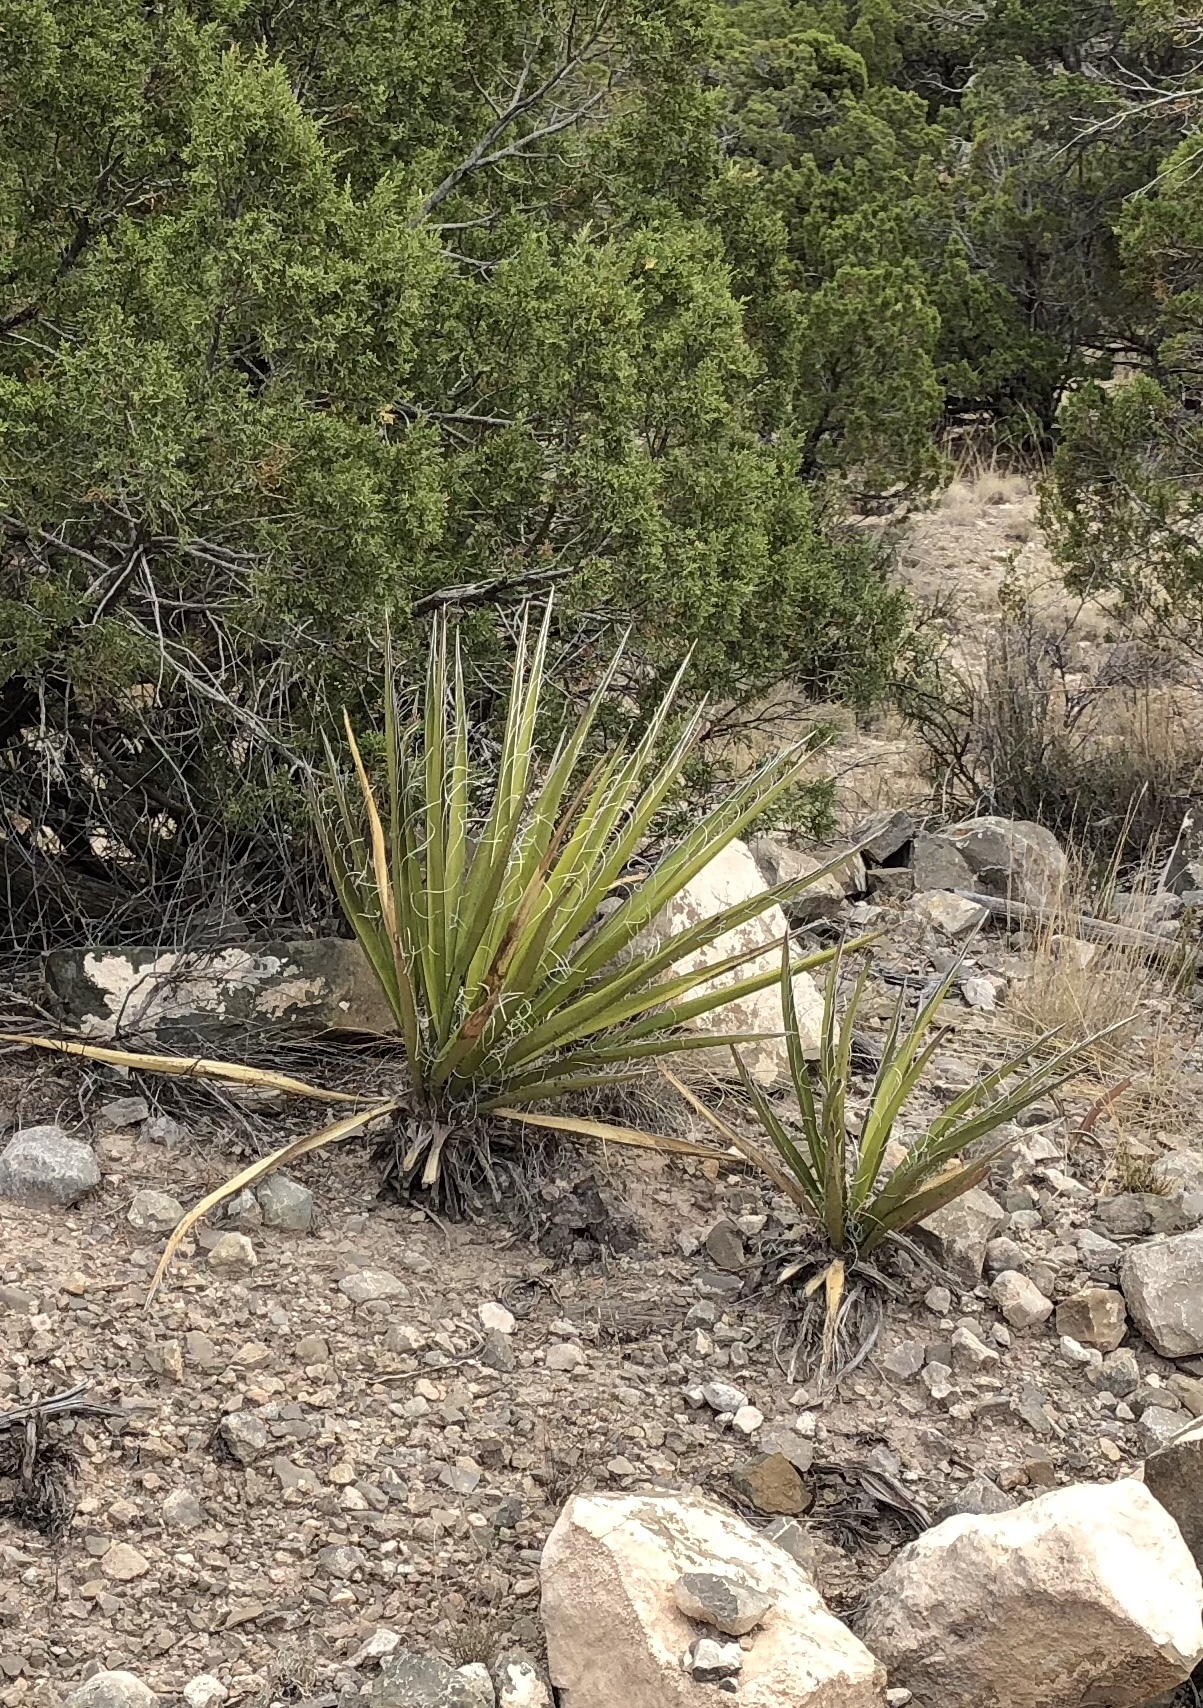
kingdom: Plantae
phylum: Tracheophyta
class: Liliopsida
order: Asparagales
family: Asparagaceae
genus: Yucca
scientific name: Yucca baccata
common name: Banana yucca
